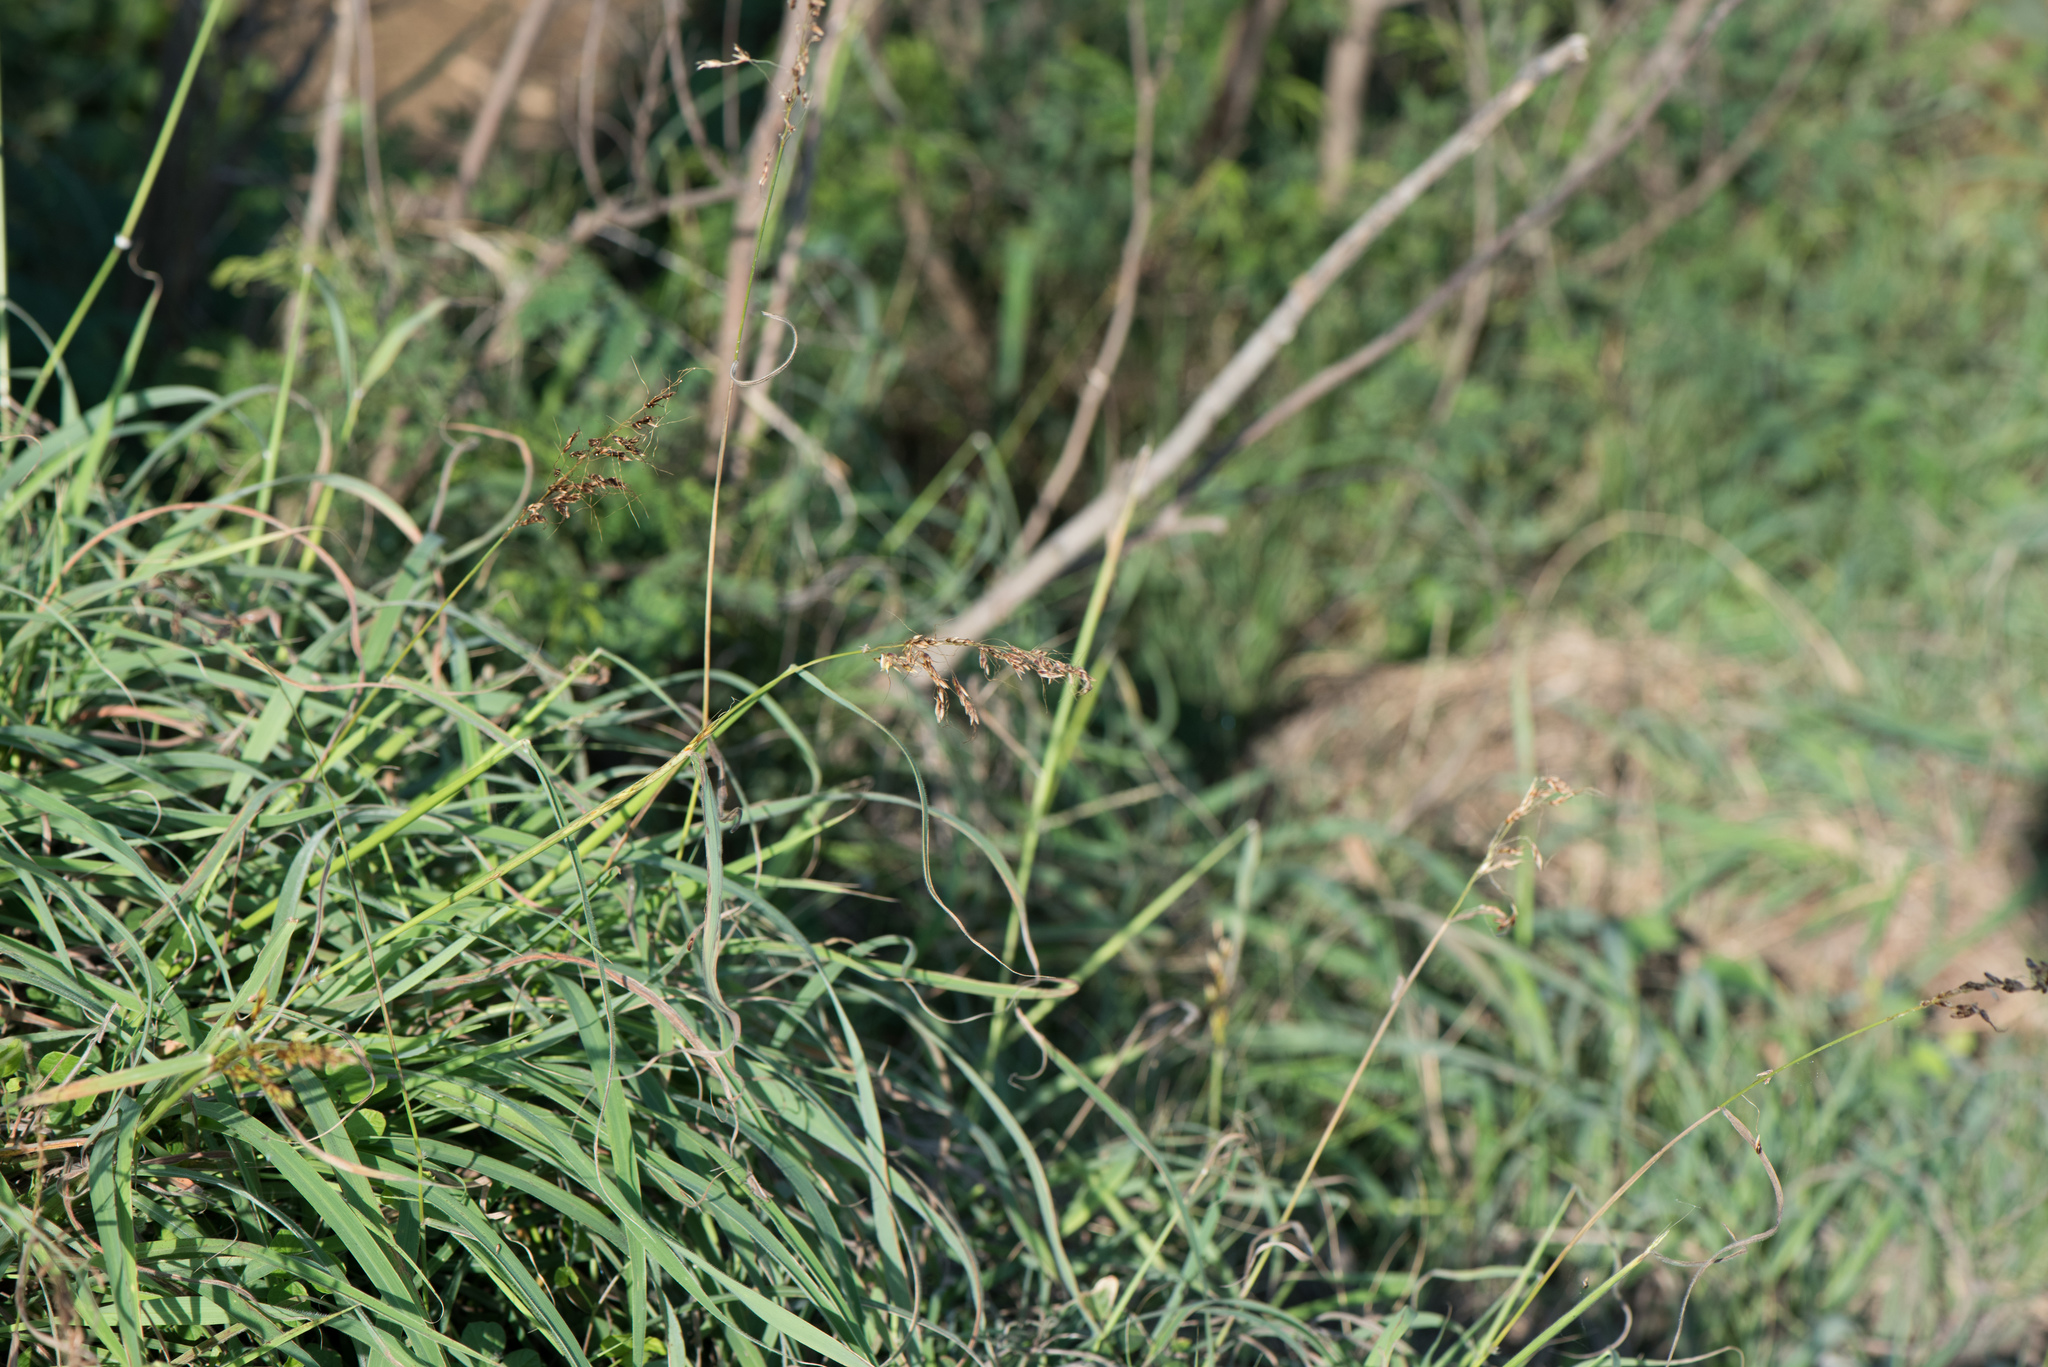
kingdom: Plantae
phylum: Tracheophyta
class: Liliopsida
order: Poales
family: Poaceae
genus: Sorghum
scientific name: Sorghum nitidum
